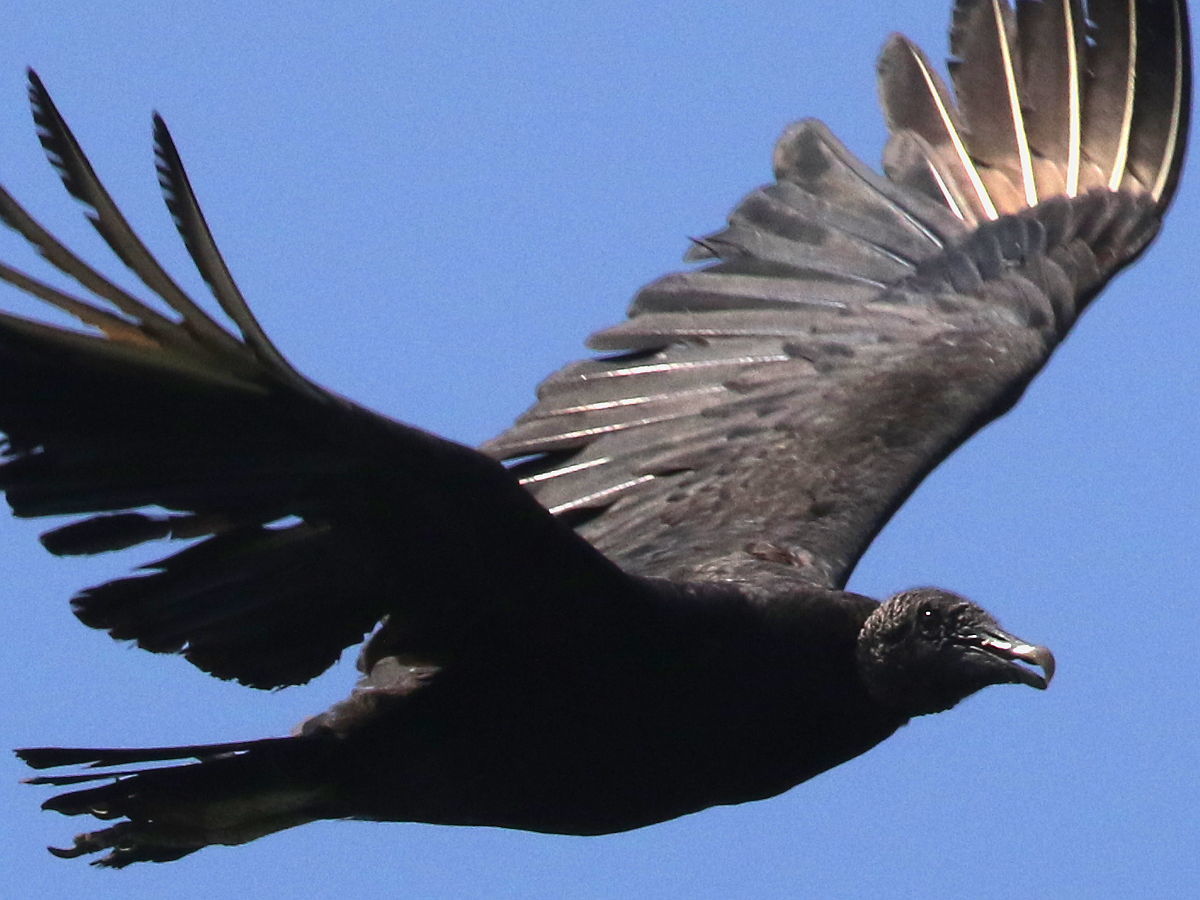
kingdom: Animalia
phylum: Chordata
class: Aves
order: Accipitriformes
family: Cathartidae
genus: Coragyps
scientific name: Coragyps atratus
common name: Black vulture
